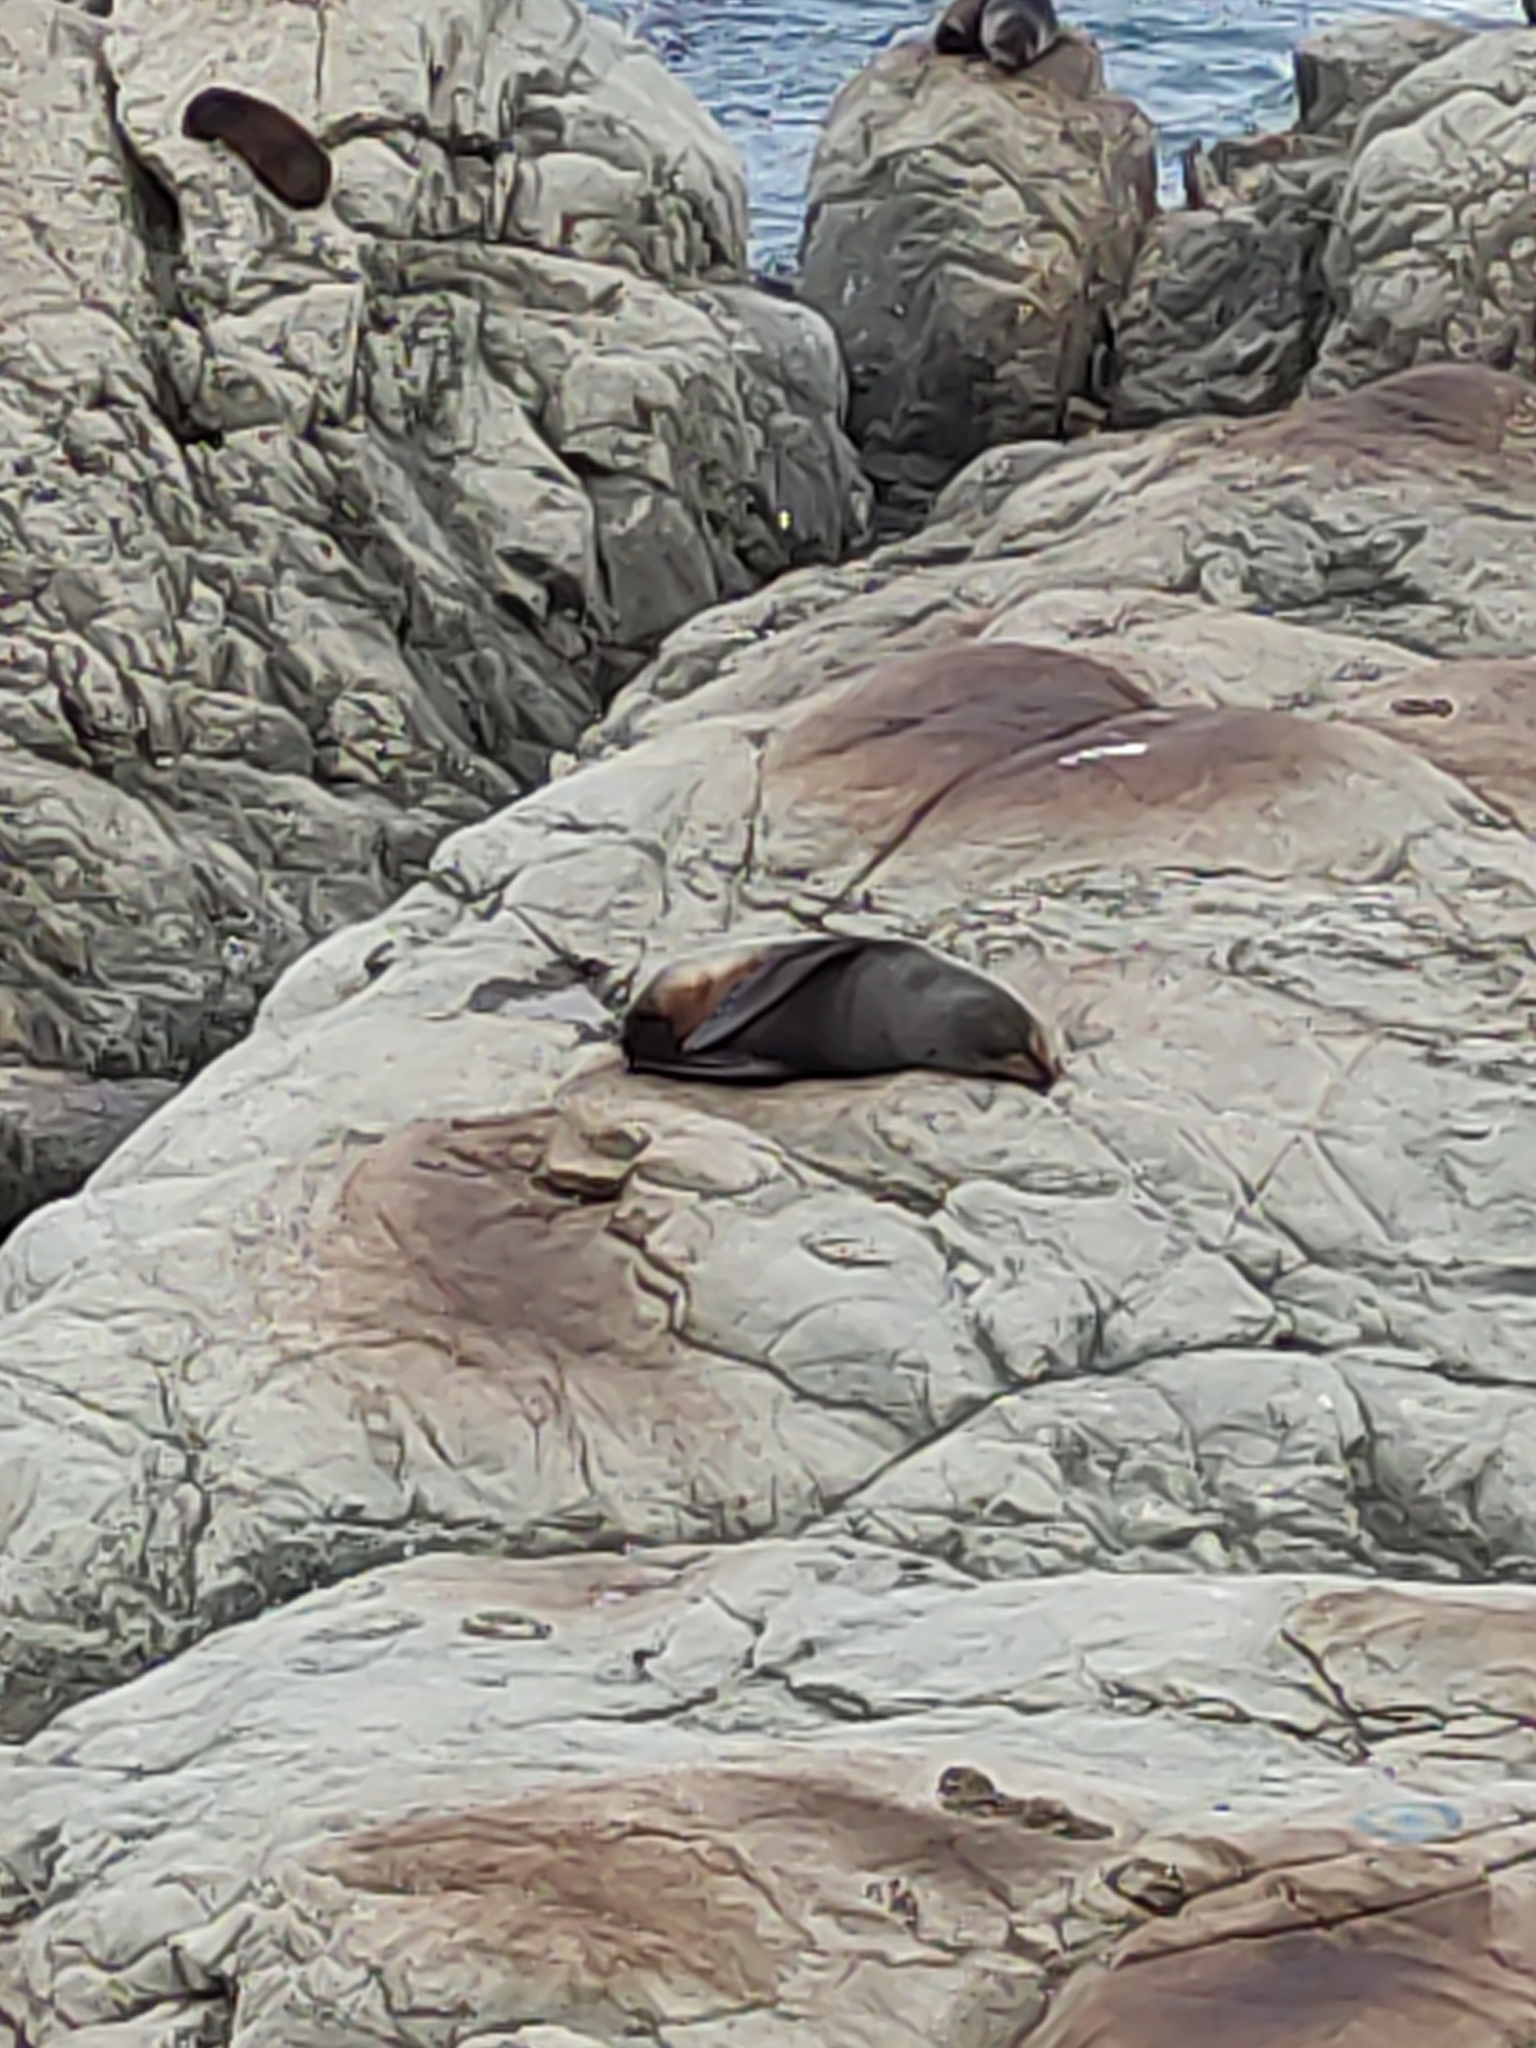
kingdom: Animalia
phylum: Chordata
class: Mammalia
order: Carnivora
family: Otariidae
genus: Arctocephalus
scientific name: Arctocephalus forsteri
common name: New zealand fur seal
